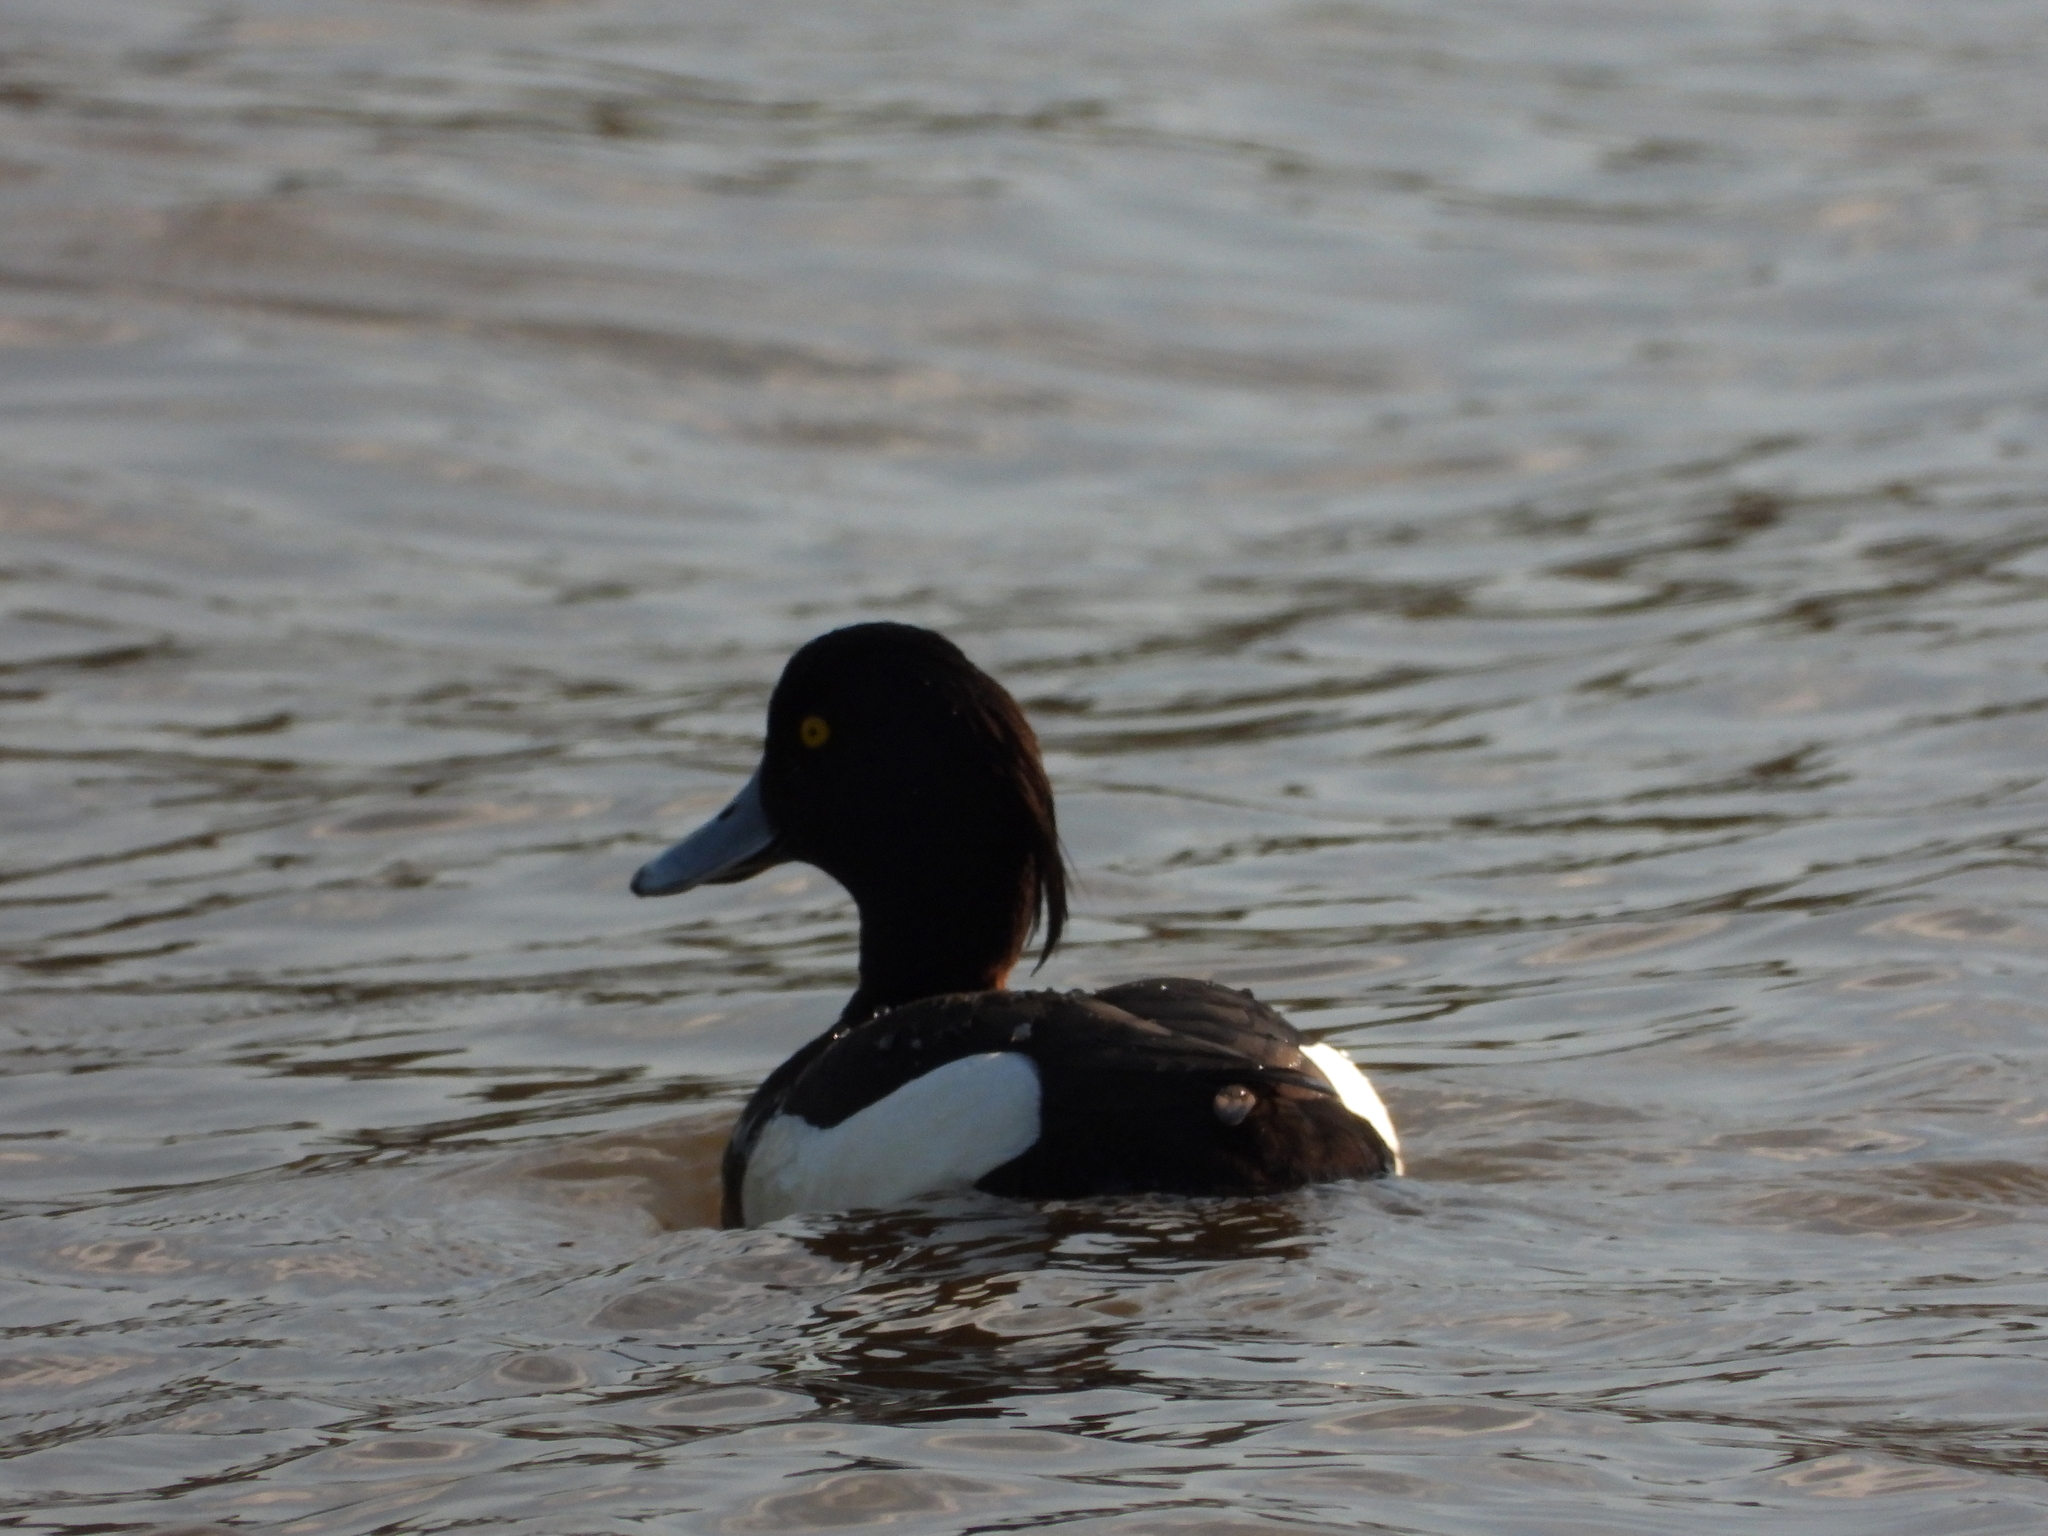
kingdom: Animalia
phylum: Chordata
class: Aves
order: Anseriformes
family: Anatidae
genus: Aythya
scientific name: Aythya fuligula
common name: Tufted duck
